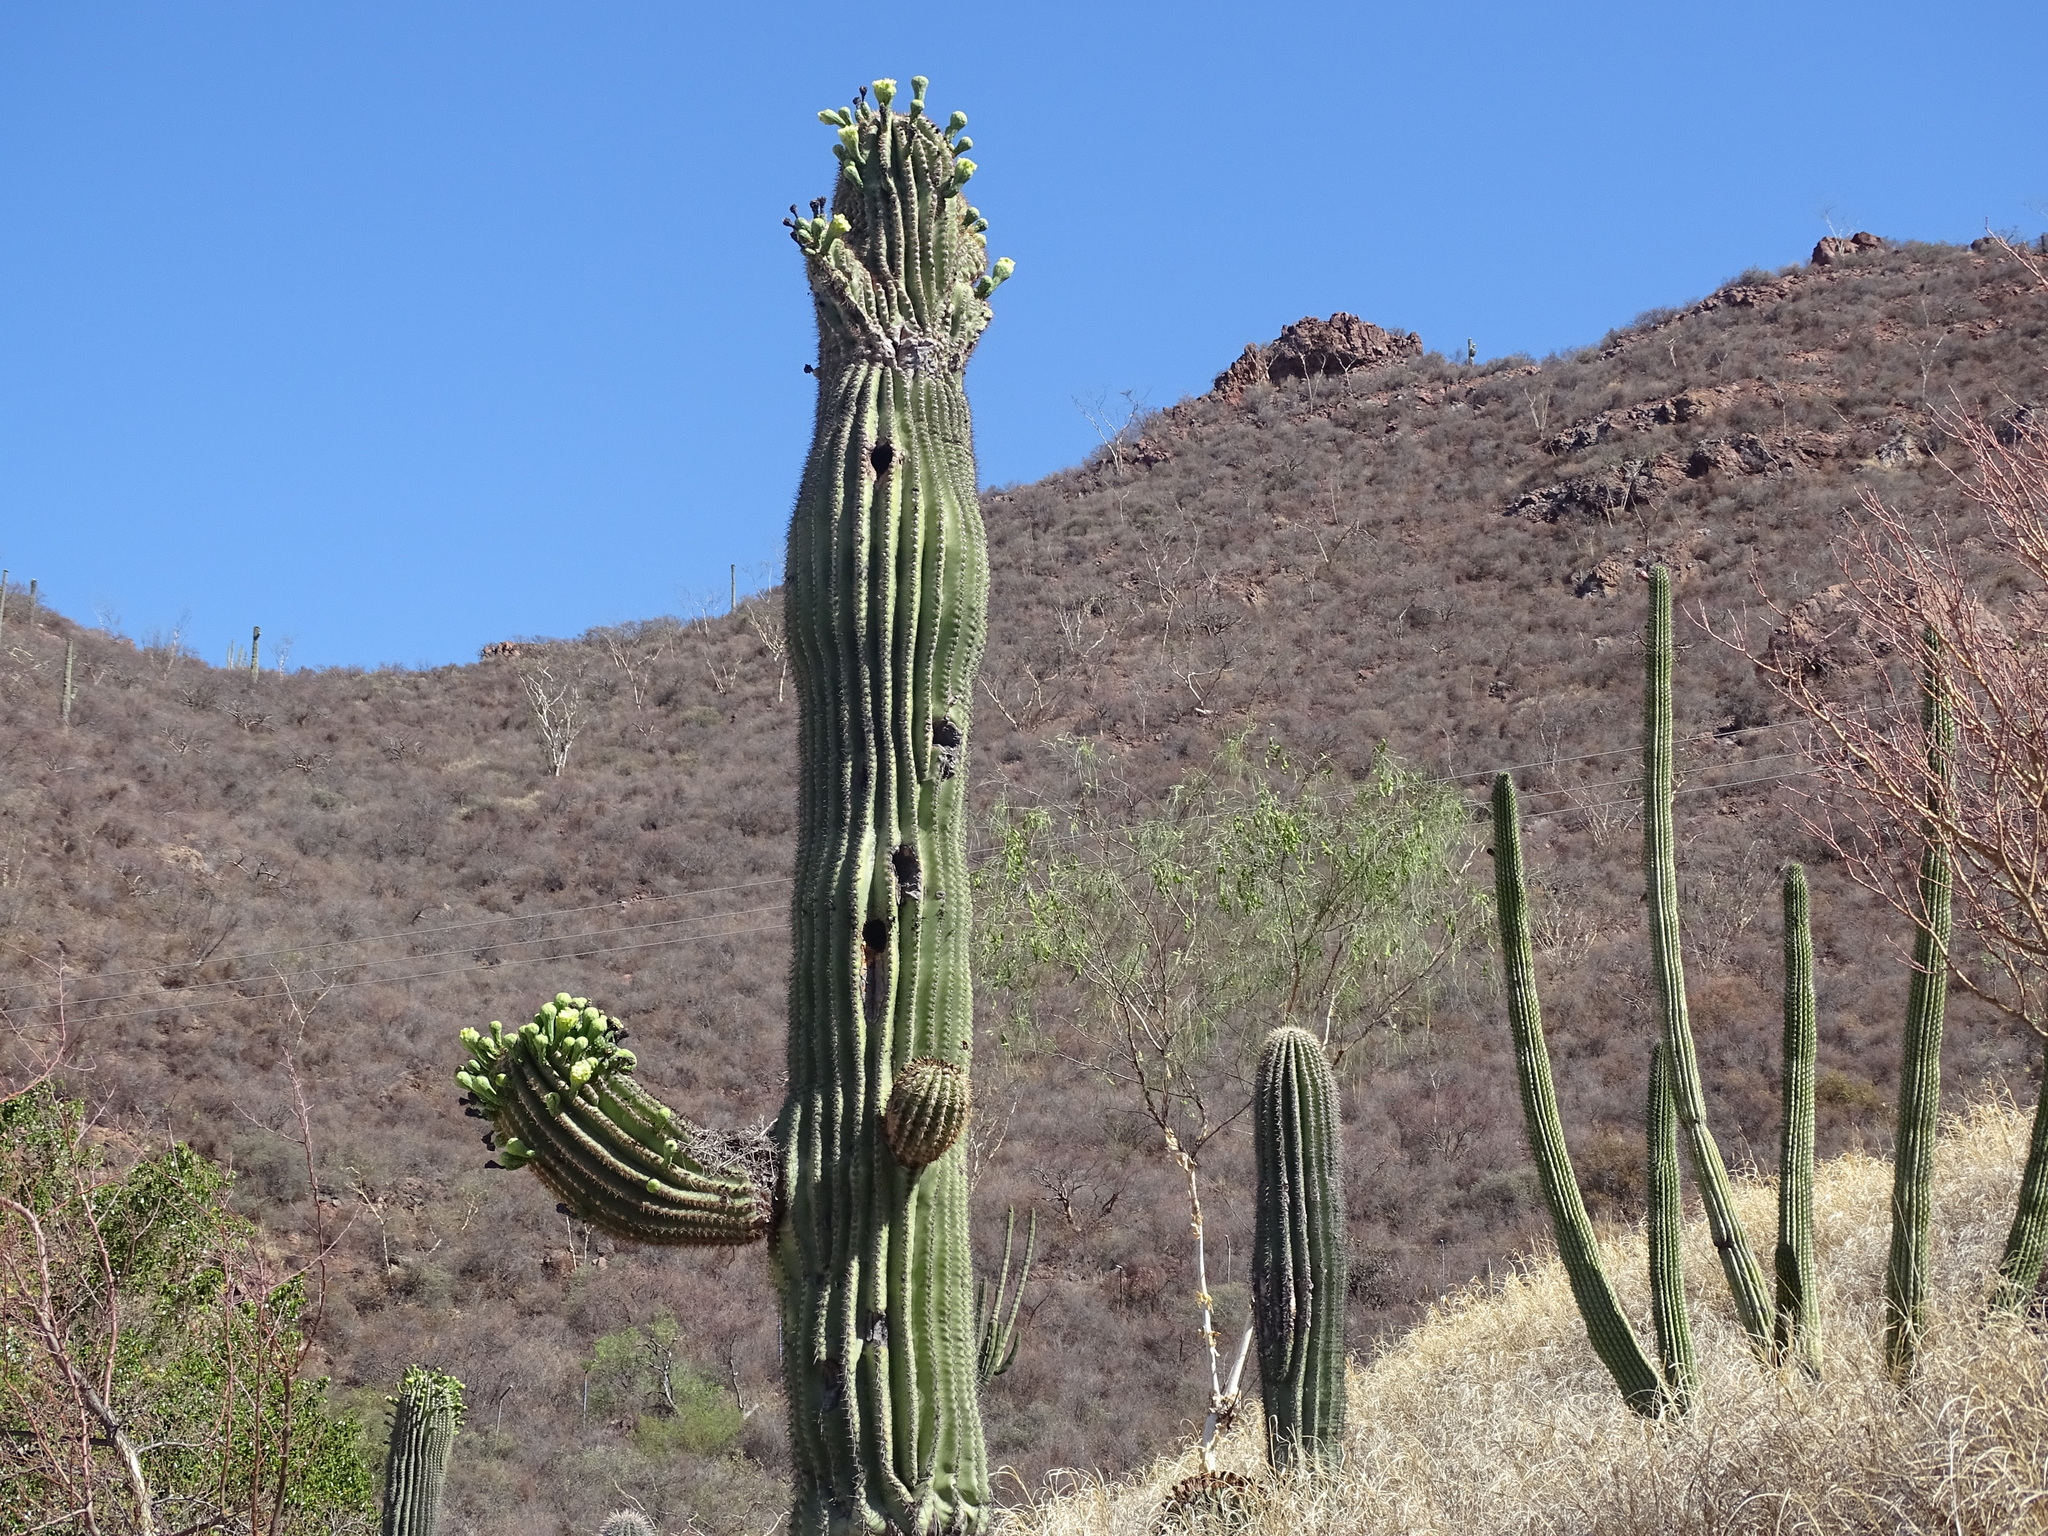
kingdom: Plantae
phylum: Tracheophyta
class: Magnoliopsida
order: Caryophyllales
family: Cactaceae
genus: Carnegiea
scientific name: Carnegiea gigantea
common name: Saguaro
